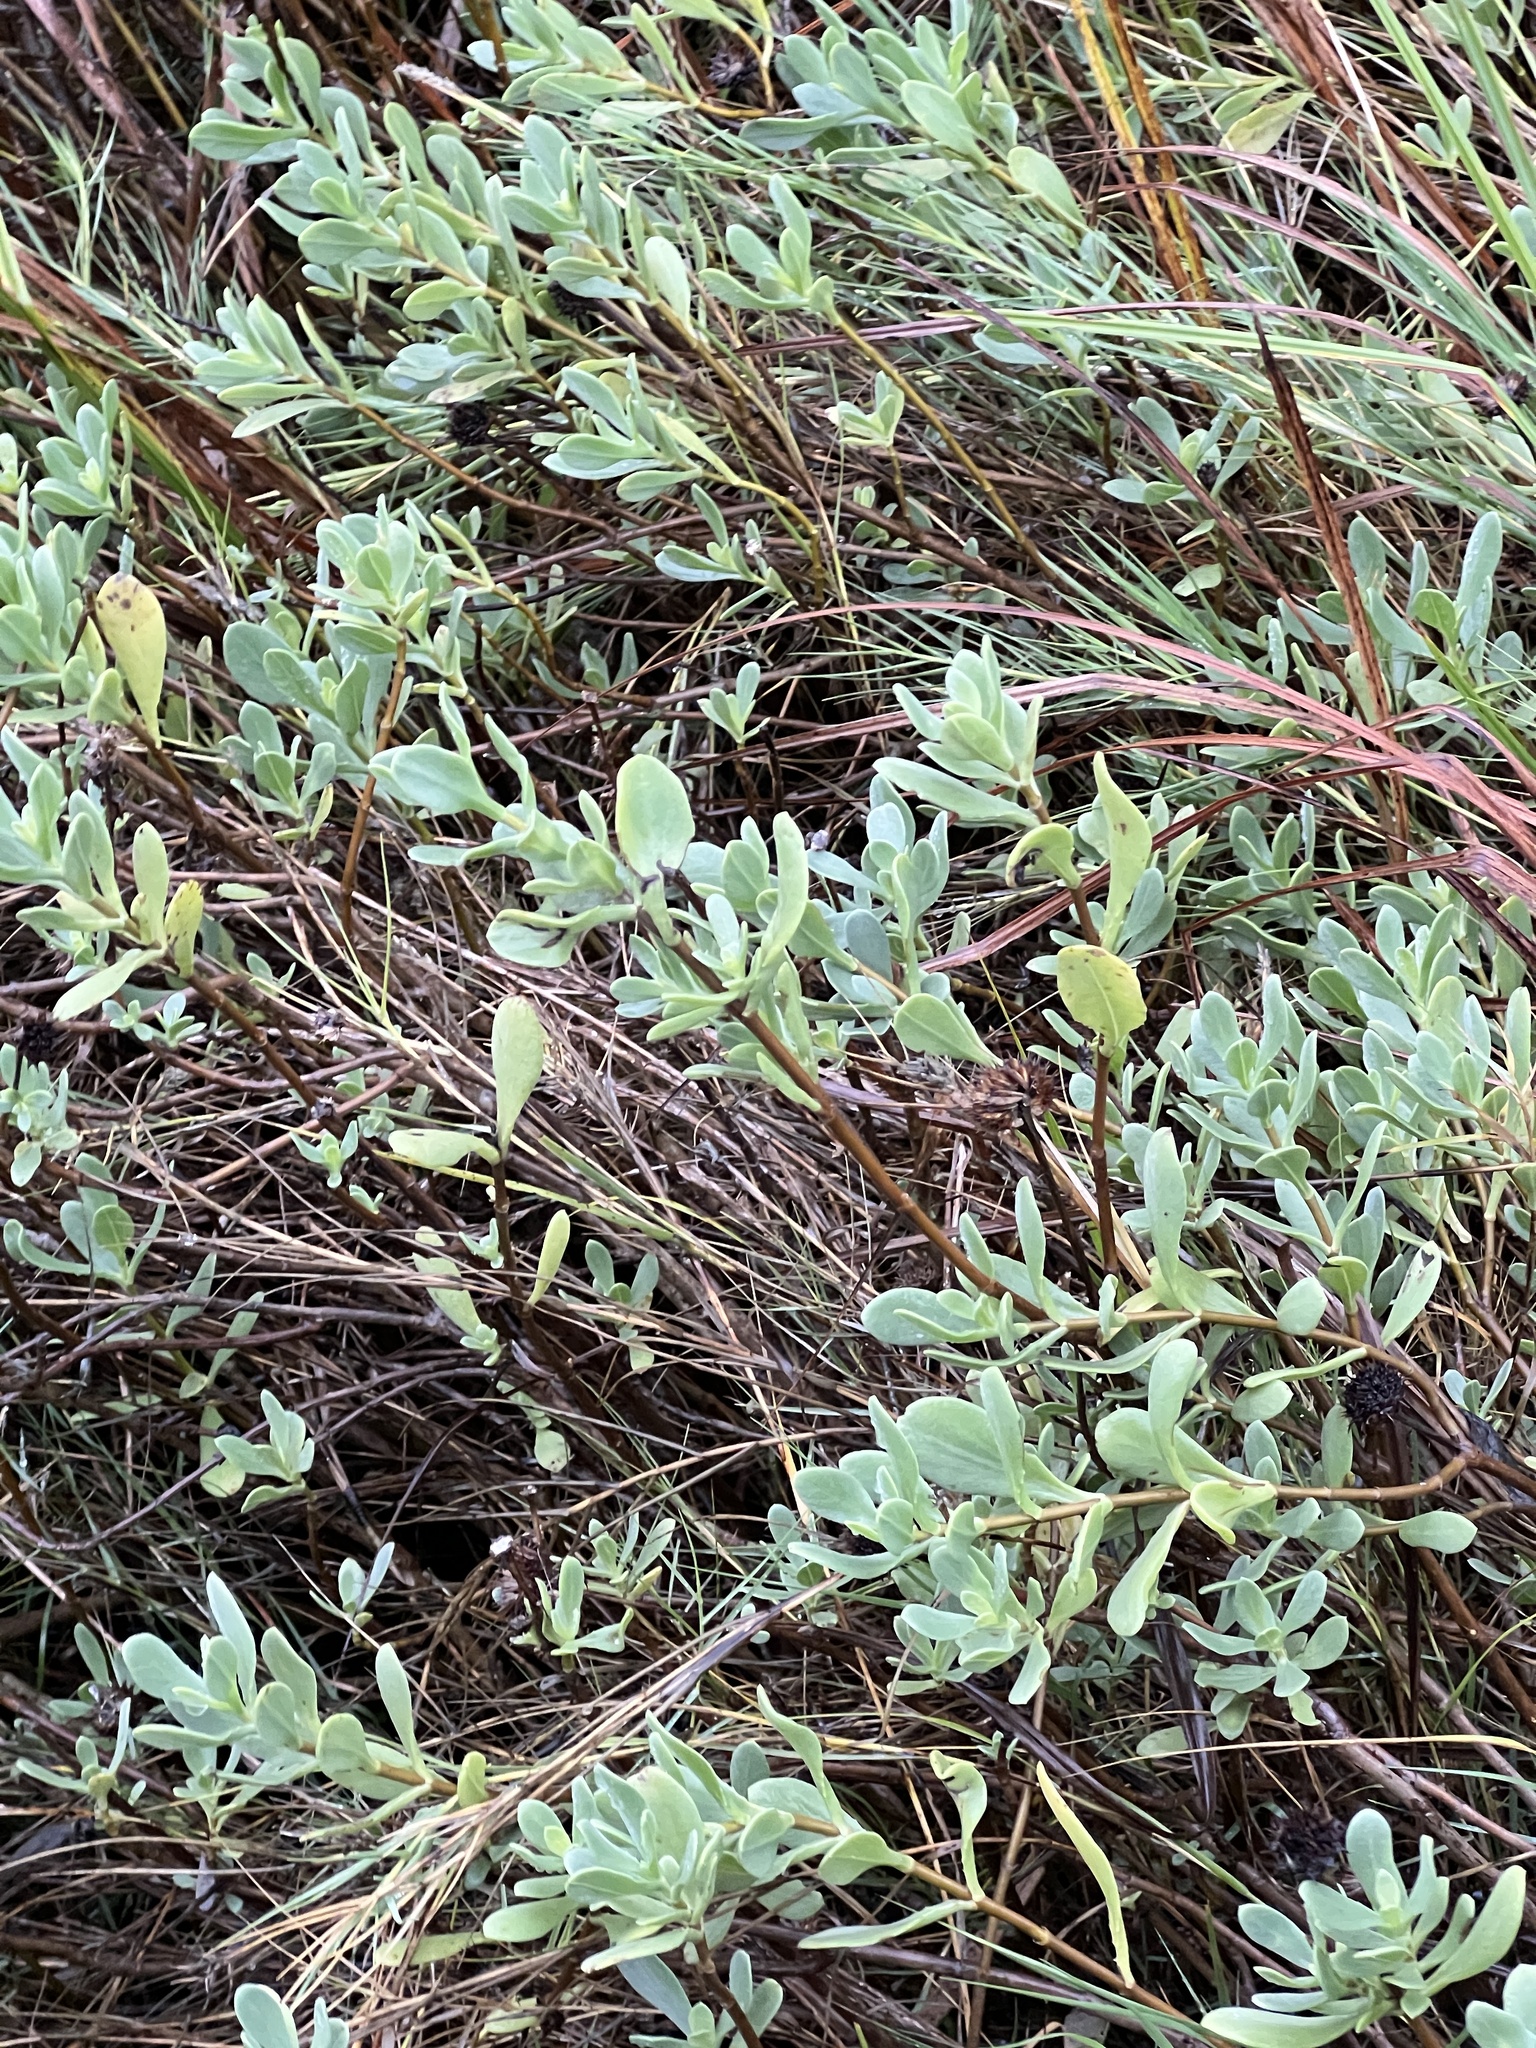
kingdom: Plantae
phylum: Tracheophyta
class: Magnoliopsida
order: Asterales
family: Asteraceae
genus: Borrichia
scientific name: Borrichia frutescens
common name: Sea oxeye
